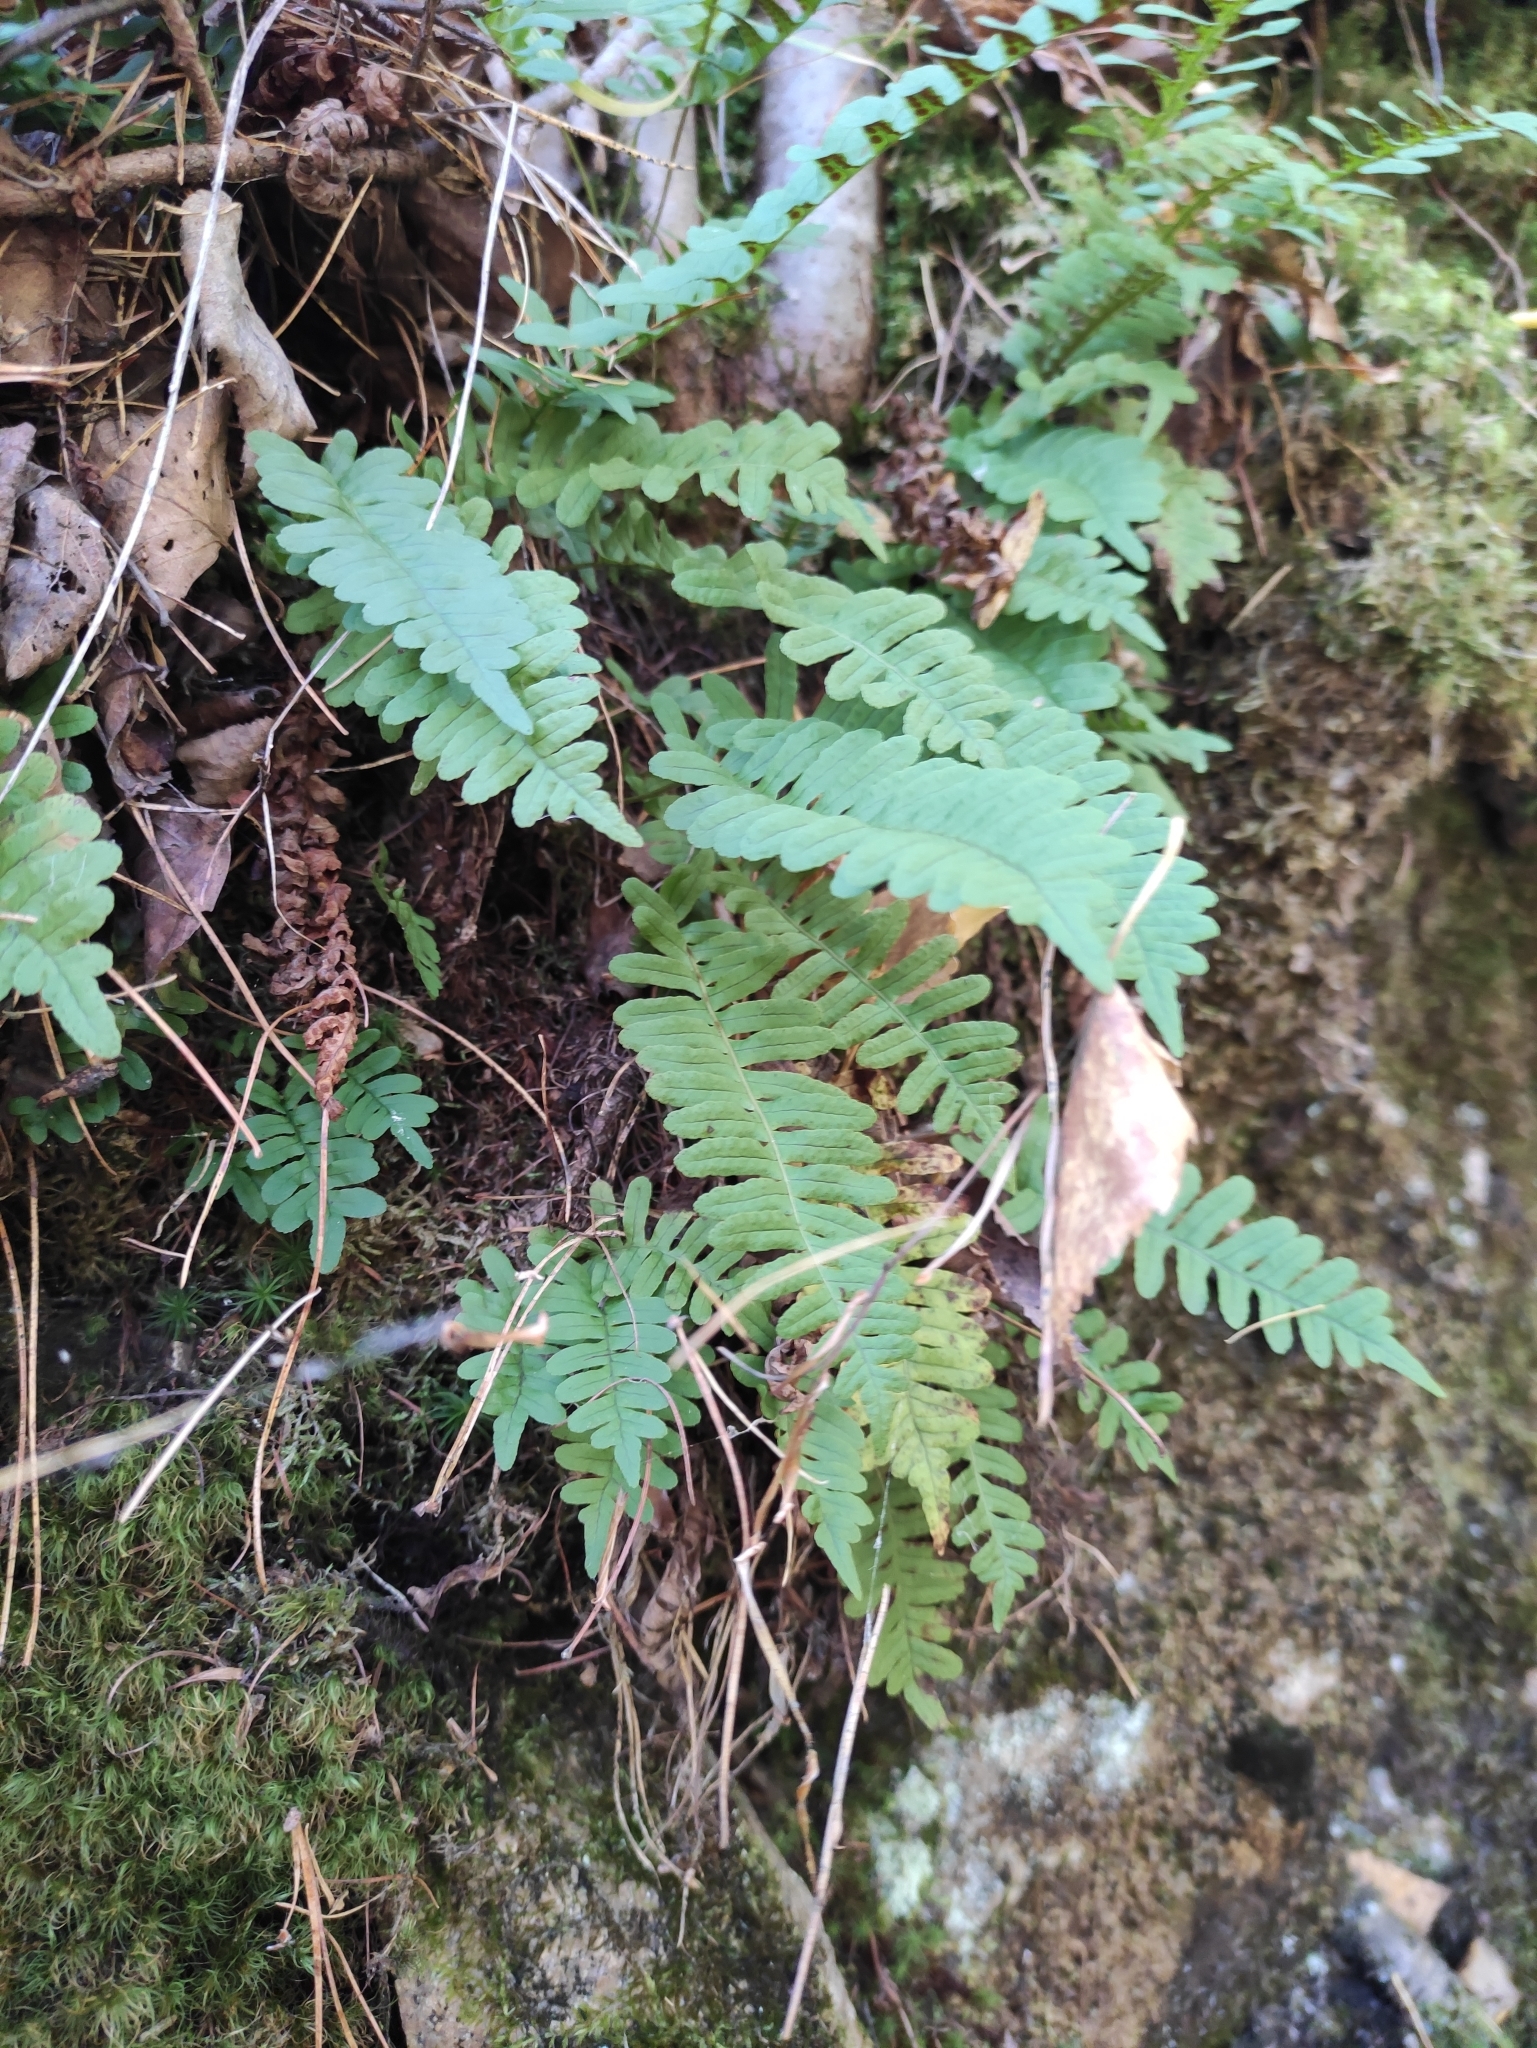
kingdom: Plantae
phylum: Tracheophyta
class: Polypodiopsida
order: Polypodiales
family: Polypodiaceae
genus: Polypodium
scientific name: Polypodium sibiricum
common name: Siberian polypody
